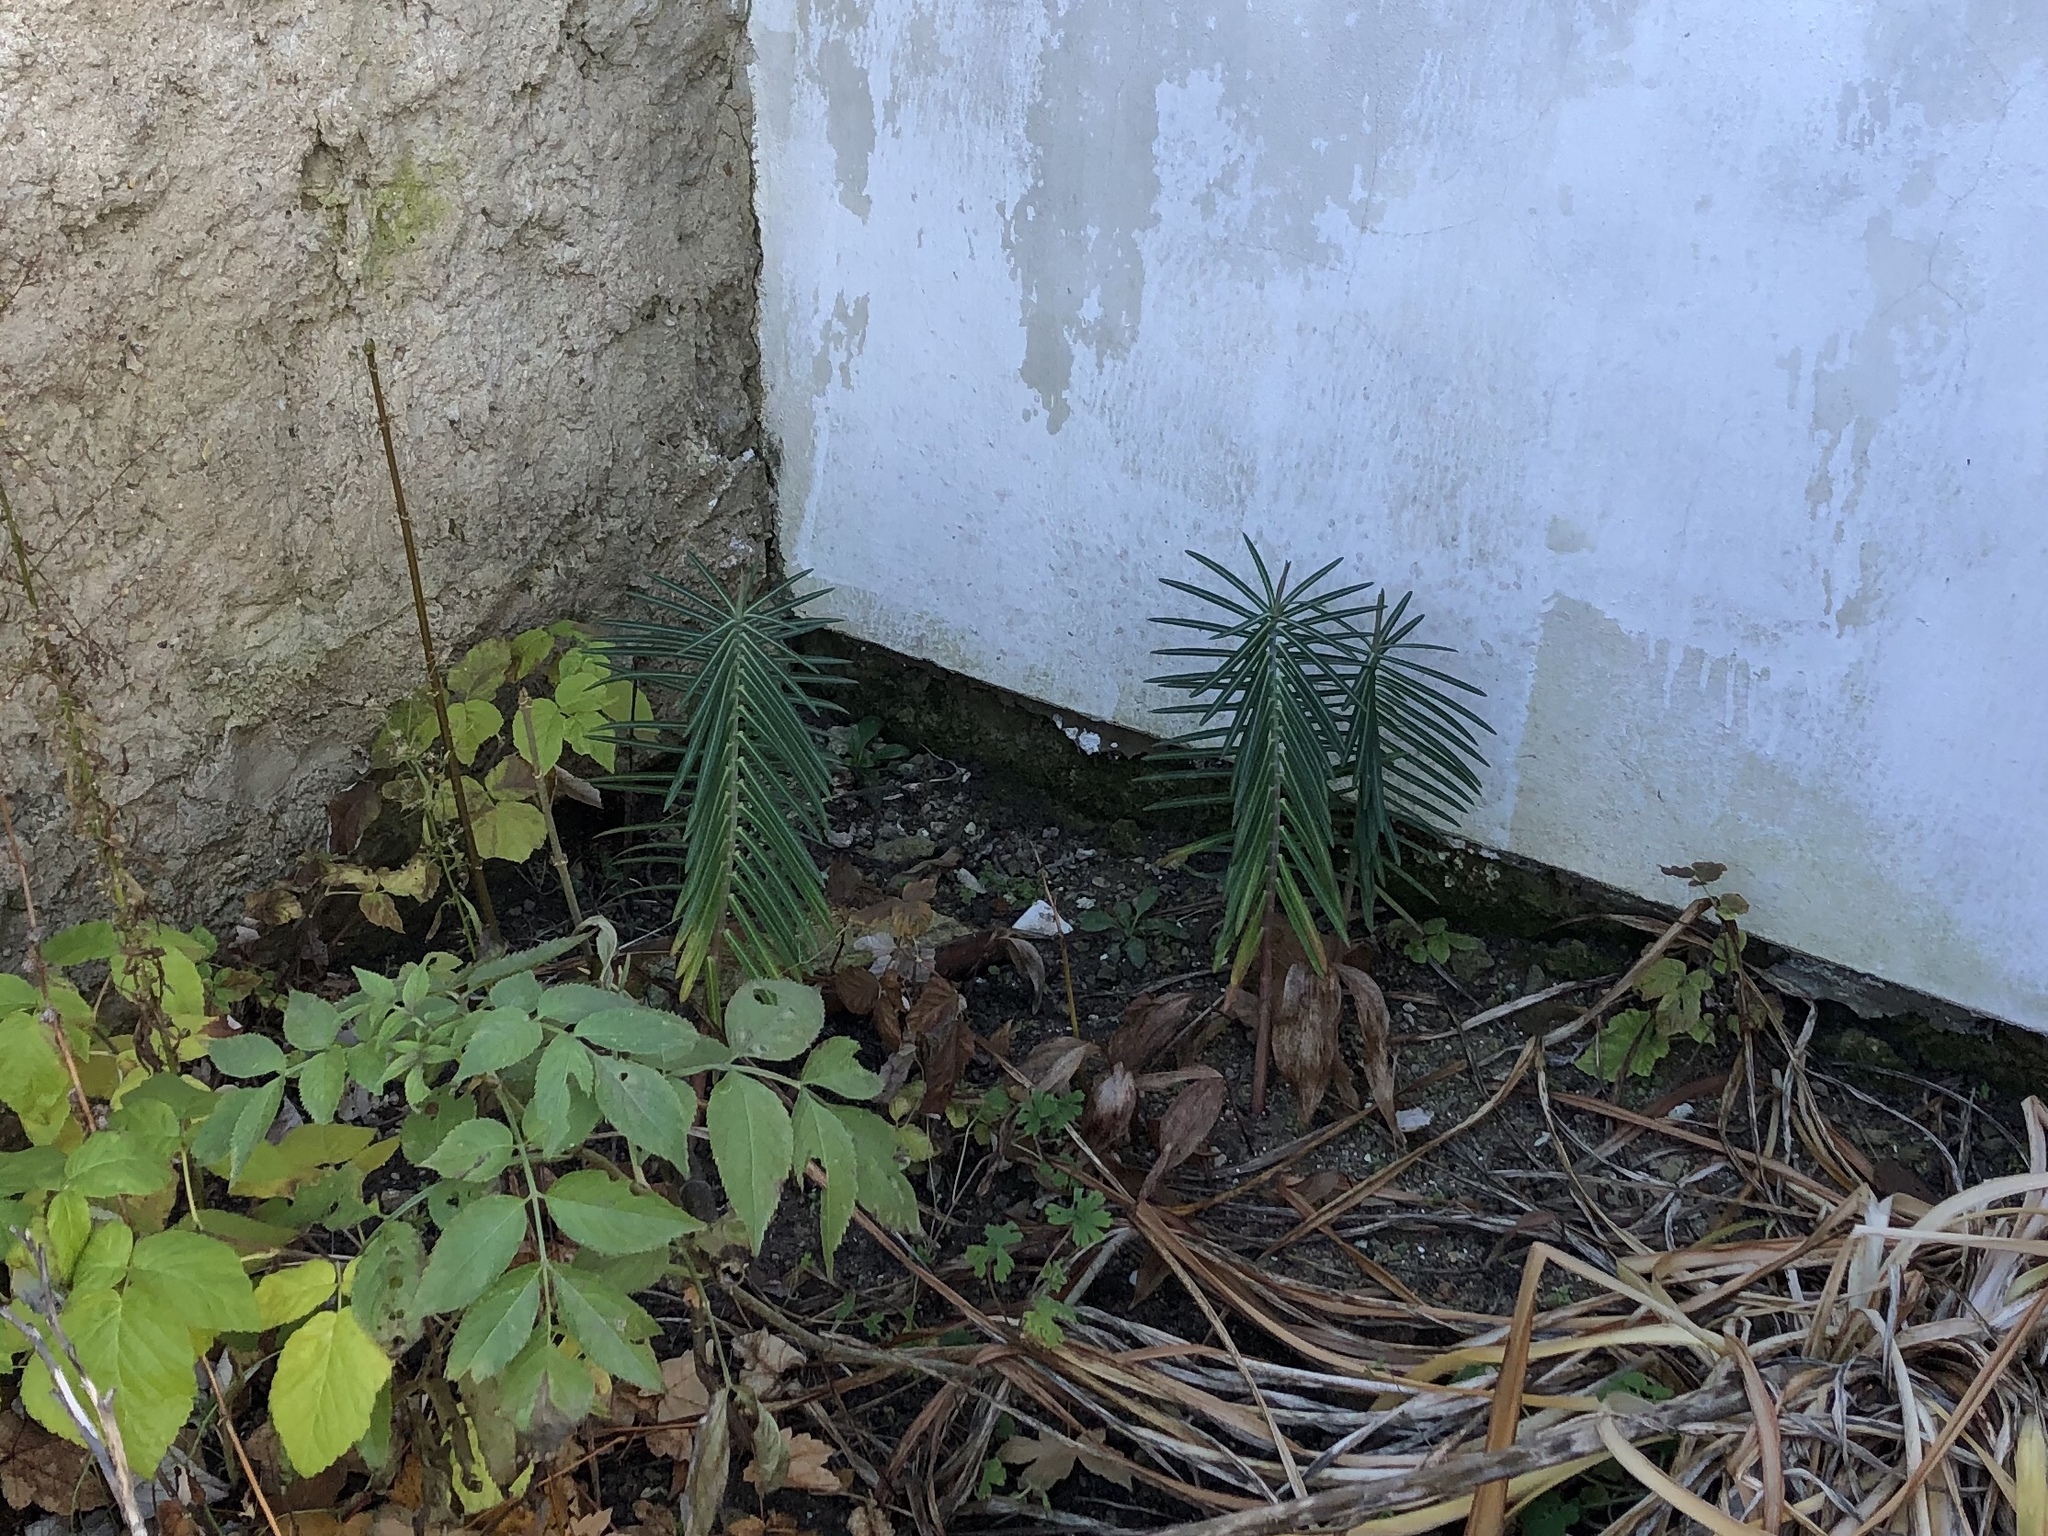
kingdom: Plantae
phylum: Tracheophyta
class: Magnoliopsida
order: Malpighiales
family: Euphorbiaceae
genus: Euphorbia
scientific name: Euphorbia lathyris
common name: Caper spurge
